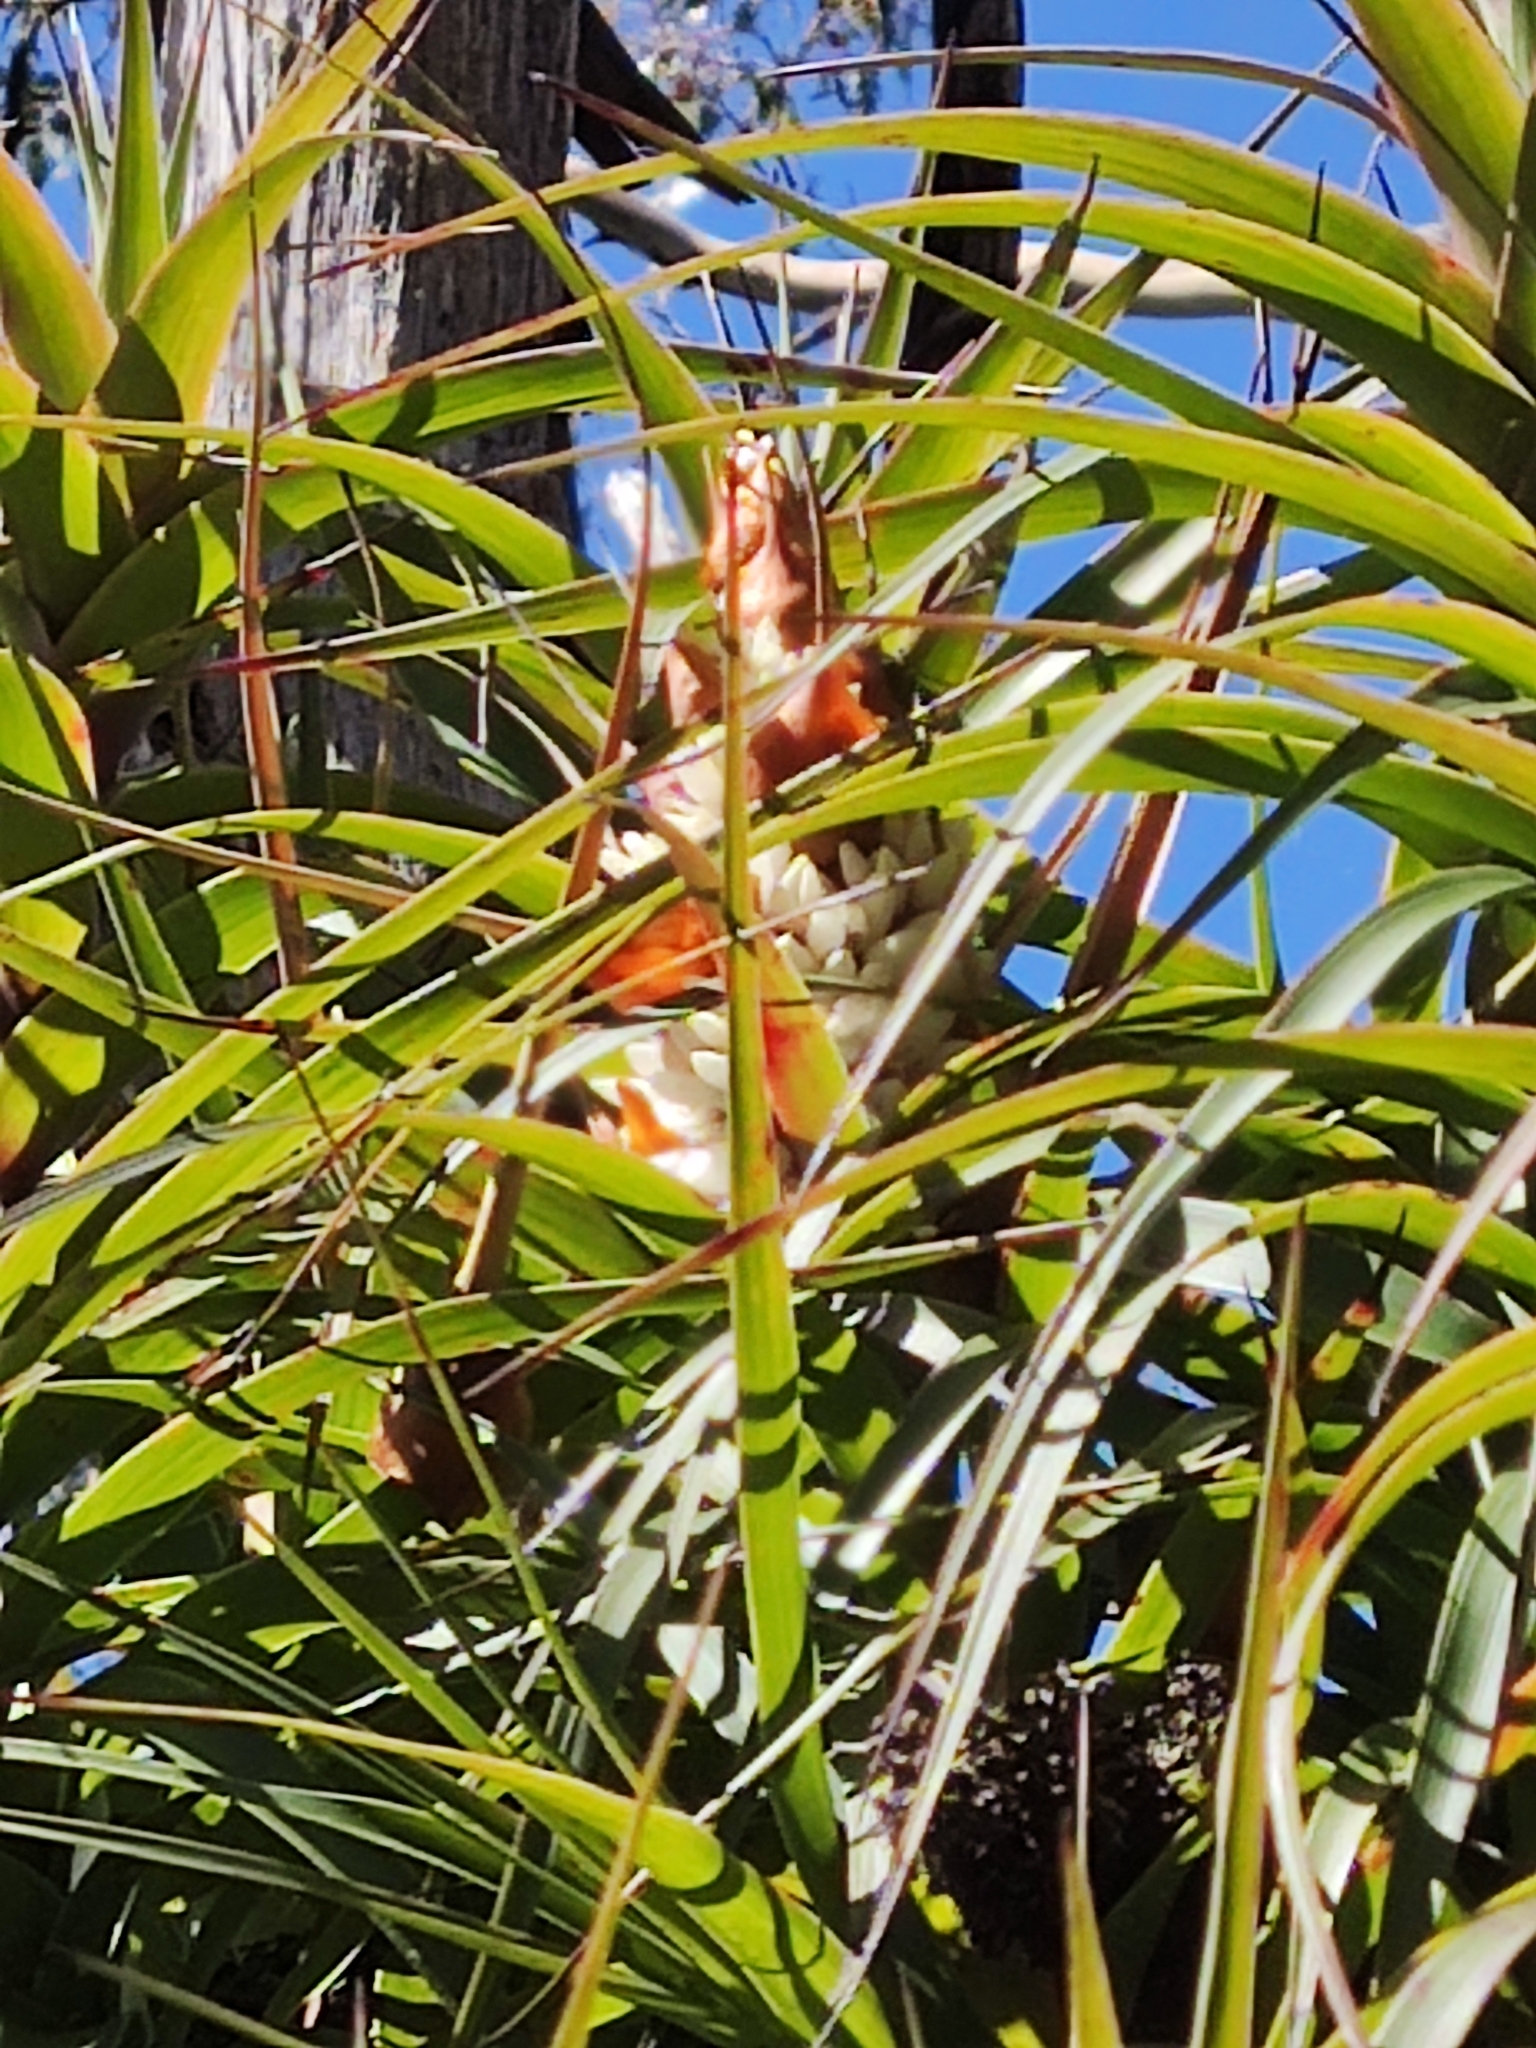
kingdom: Plantae
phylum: Tracheophyta
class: Magnoliopsida
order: Ericales
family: Ericaceae
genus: Dracophyllum
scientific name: Dracophyllum desgrazii
